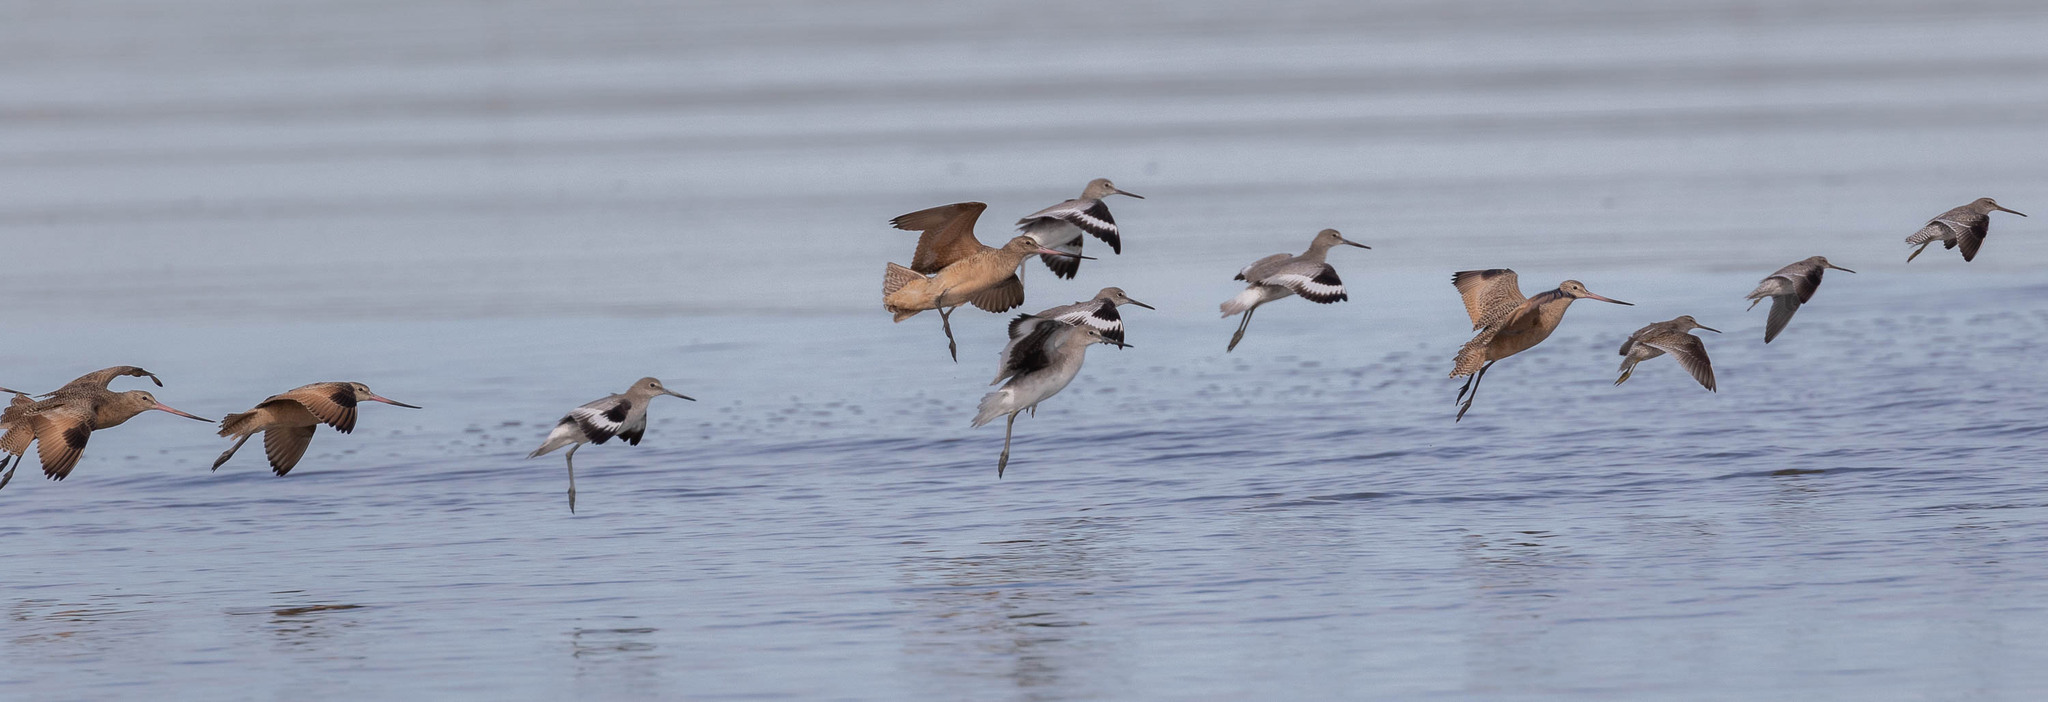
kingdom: Animalia
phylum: Chordata
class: Aves
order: Charadriiformes
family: Scolopacidae
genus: Limosa
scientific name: Limosa fedoa
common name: Marbled godwit
